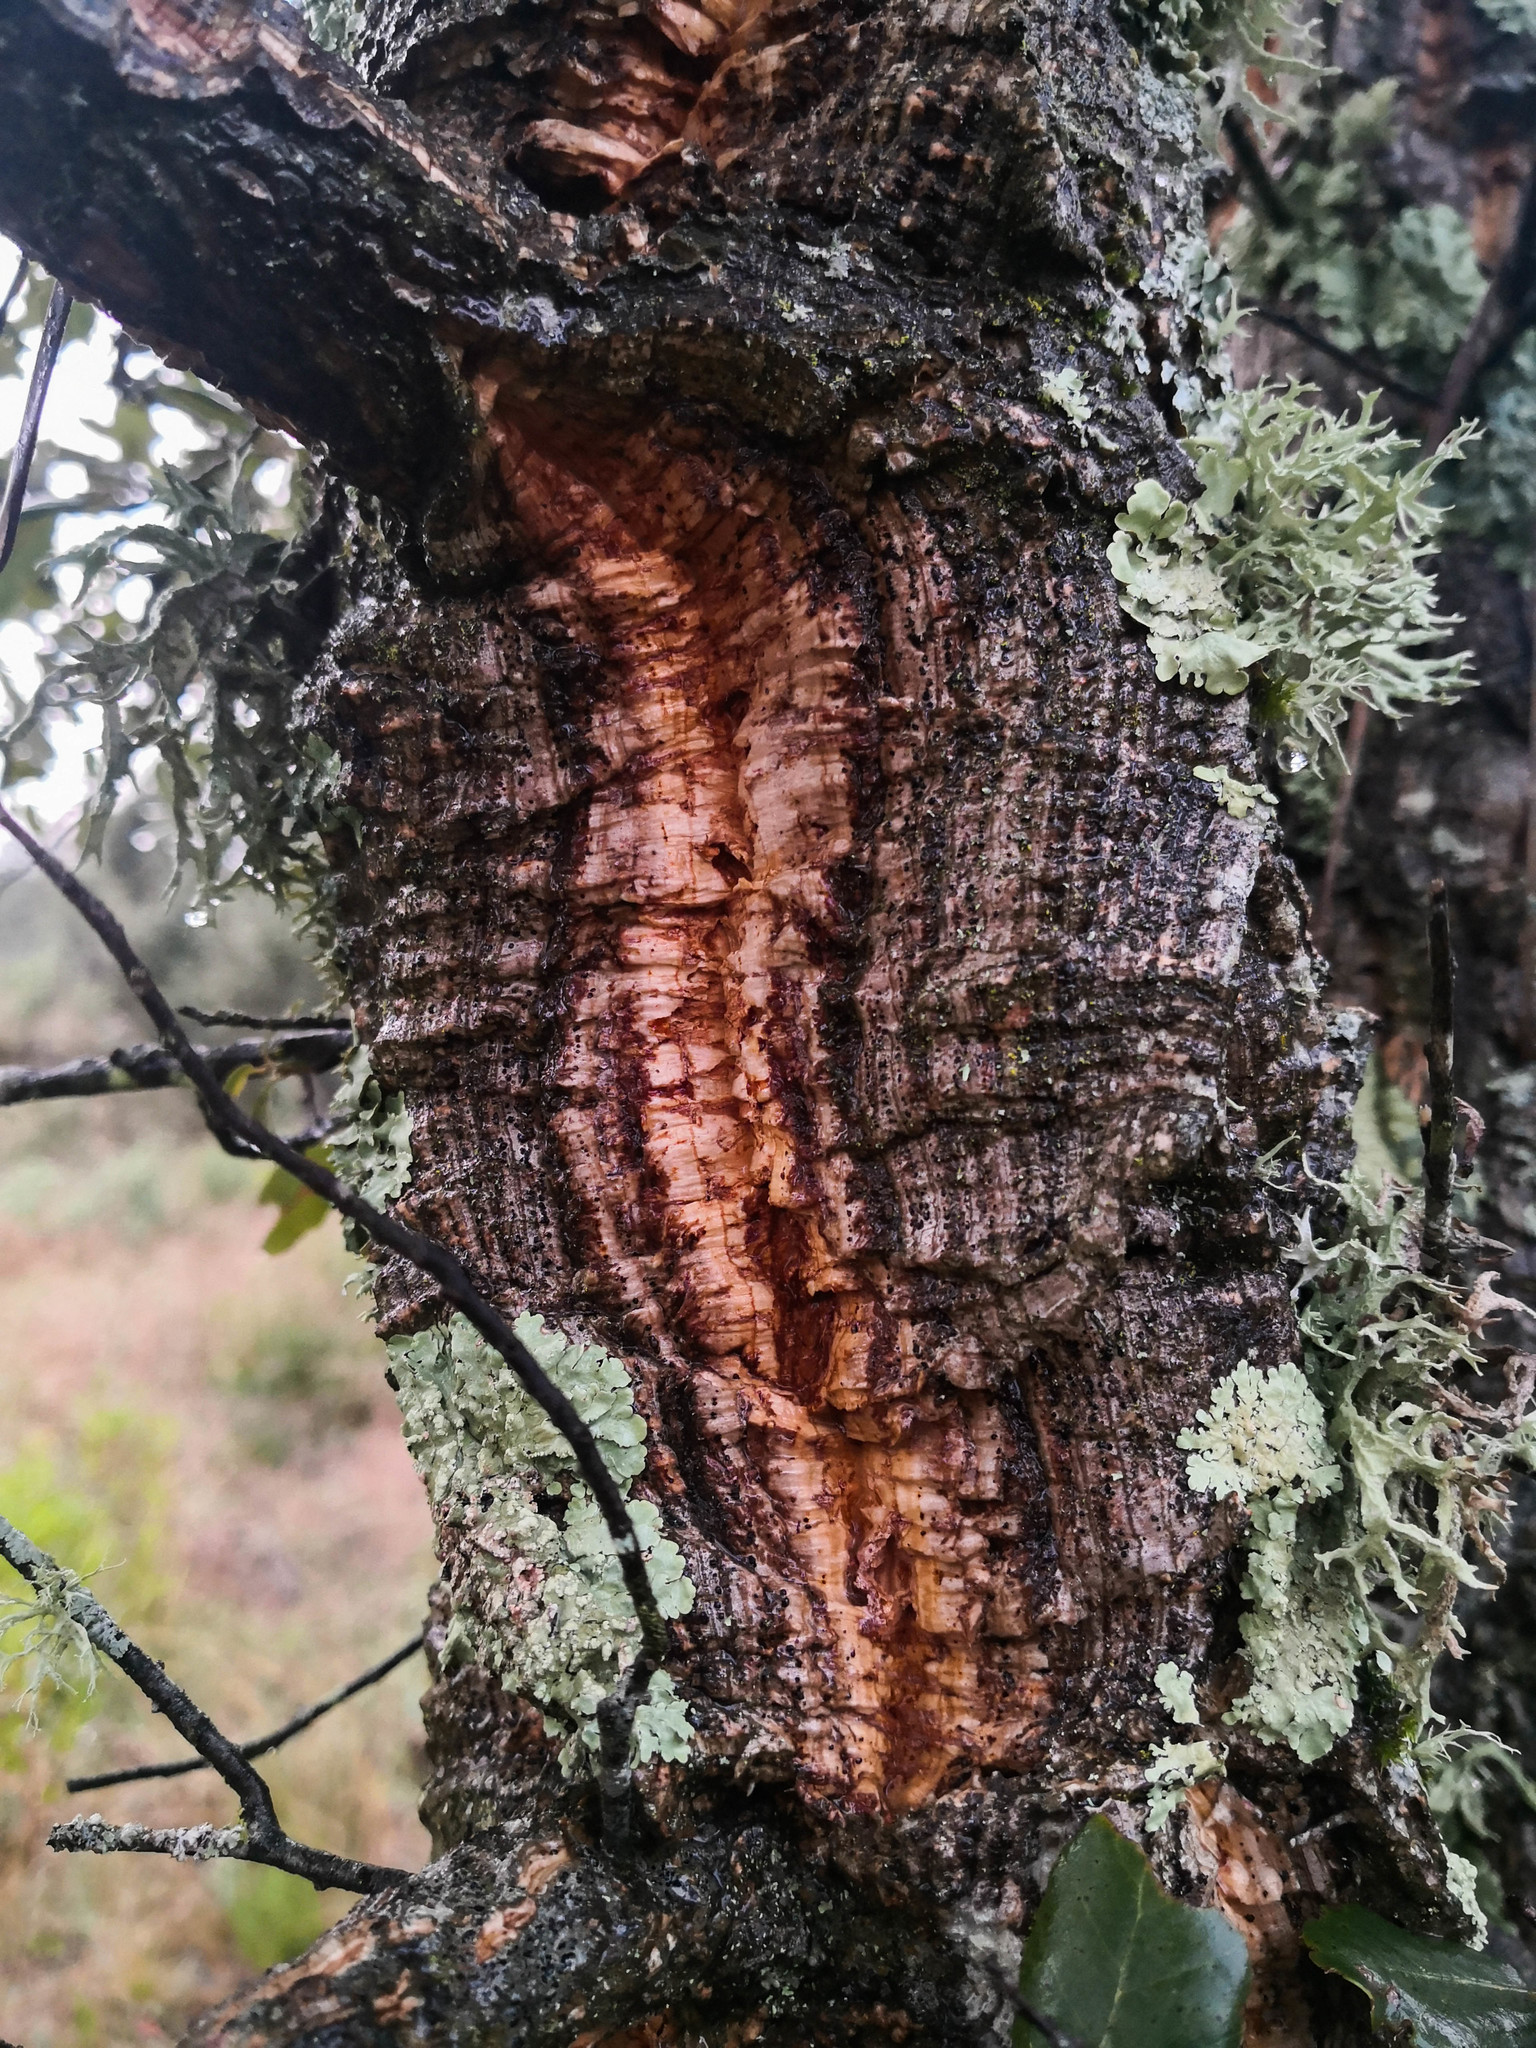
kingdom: Plantae
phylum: Tracheophyta
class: Magnoliopsida
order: Fagales
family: Fagaceae
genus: Quercus
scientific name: Quercus rotundifolia
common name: Holm oak
